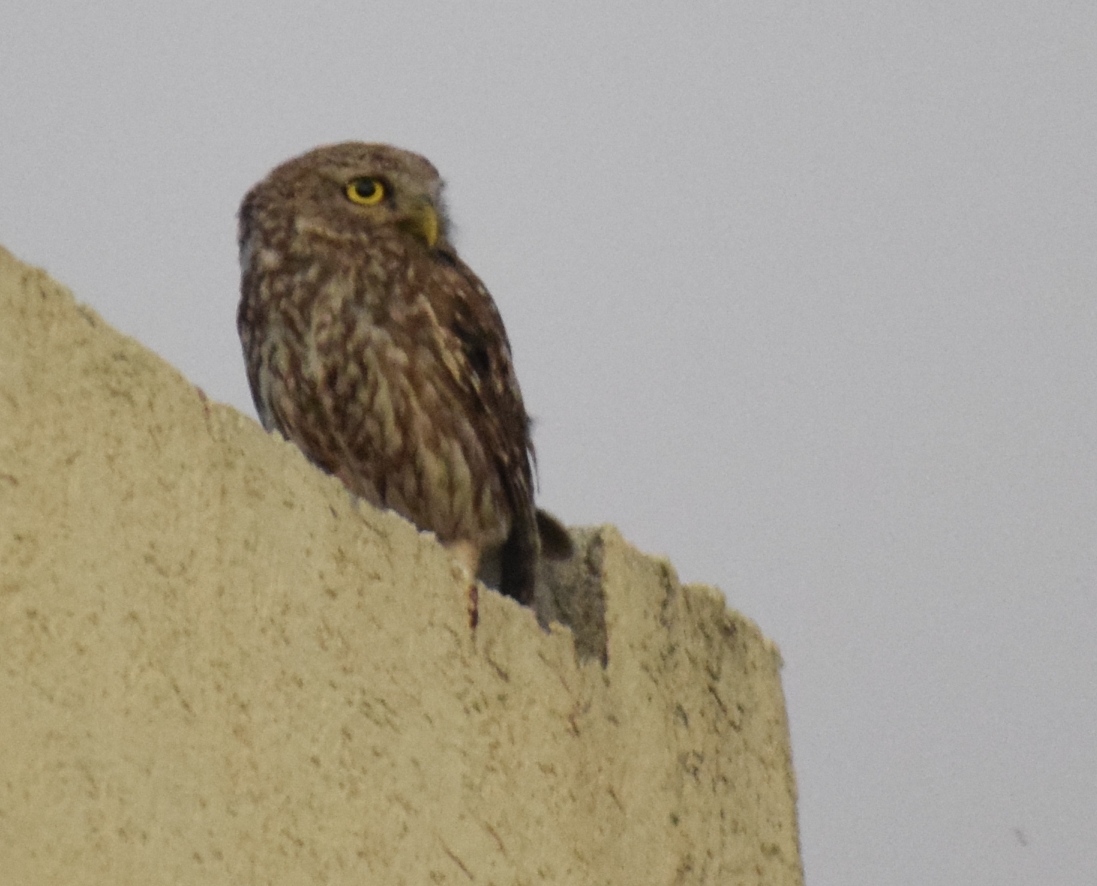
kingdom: Animalia
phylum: Chordata
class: Aves
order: Strigiformes
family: Strigidae
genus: Athene
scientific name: Athene noctua
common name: Little owl
